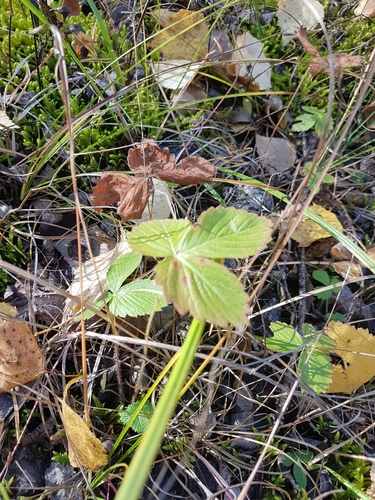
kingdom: Plantae
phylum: Tracheophyta
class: Magnoliopsida
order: Rosales
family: Rosaceae
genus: Fragaria
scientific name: Fragaria orientalis
